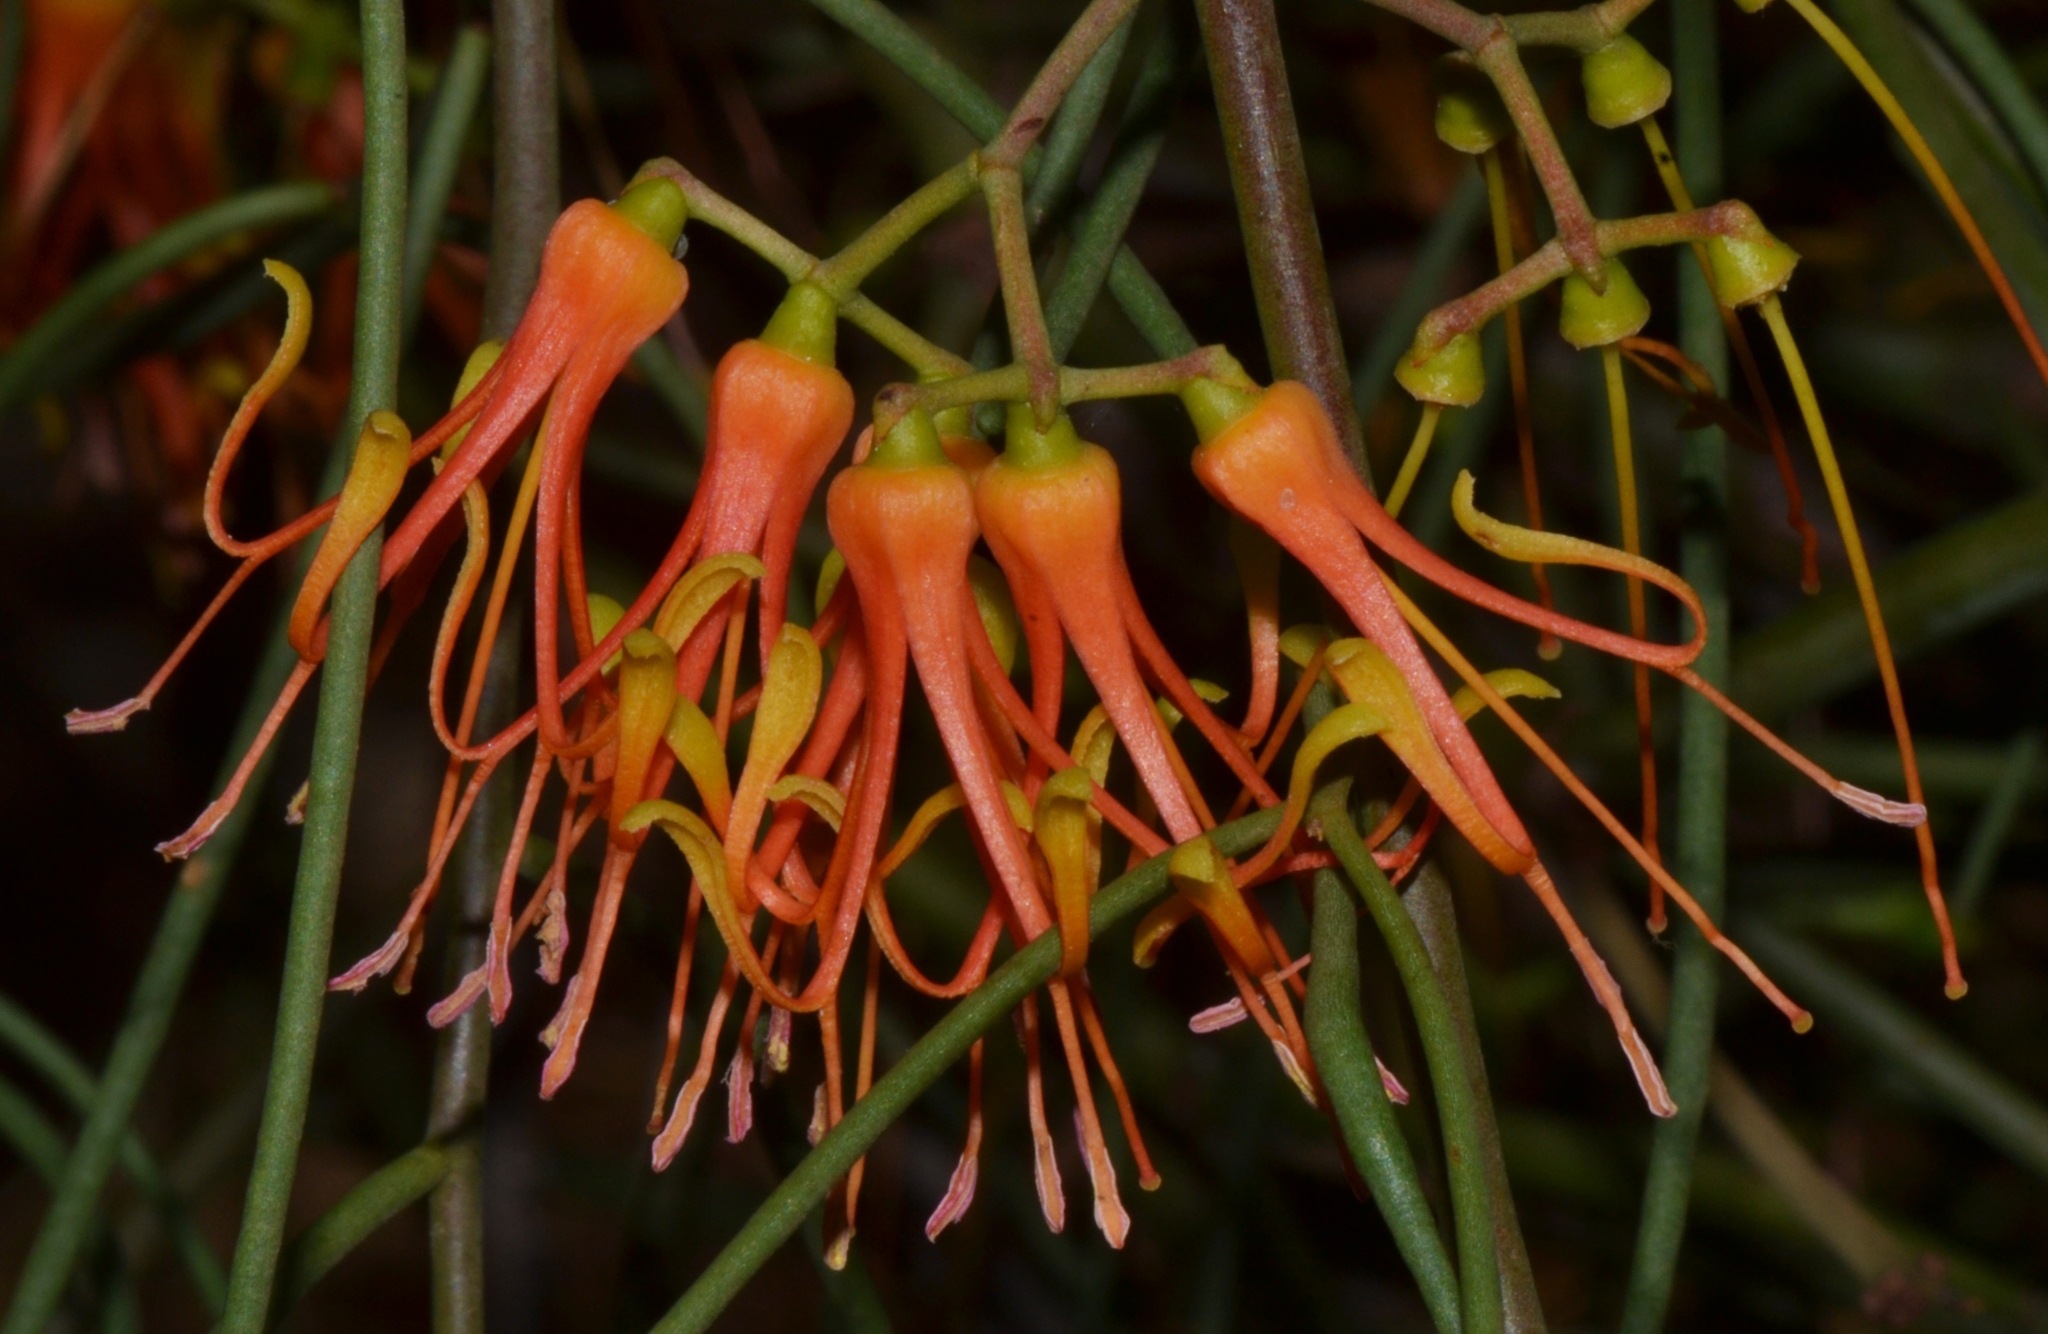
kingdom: Plantae
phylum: Tracheophyta
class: Magnoliopsida
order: Santalales
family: Loranthaceae
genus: Amyema
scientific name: Amyema preissii
